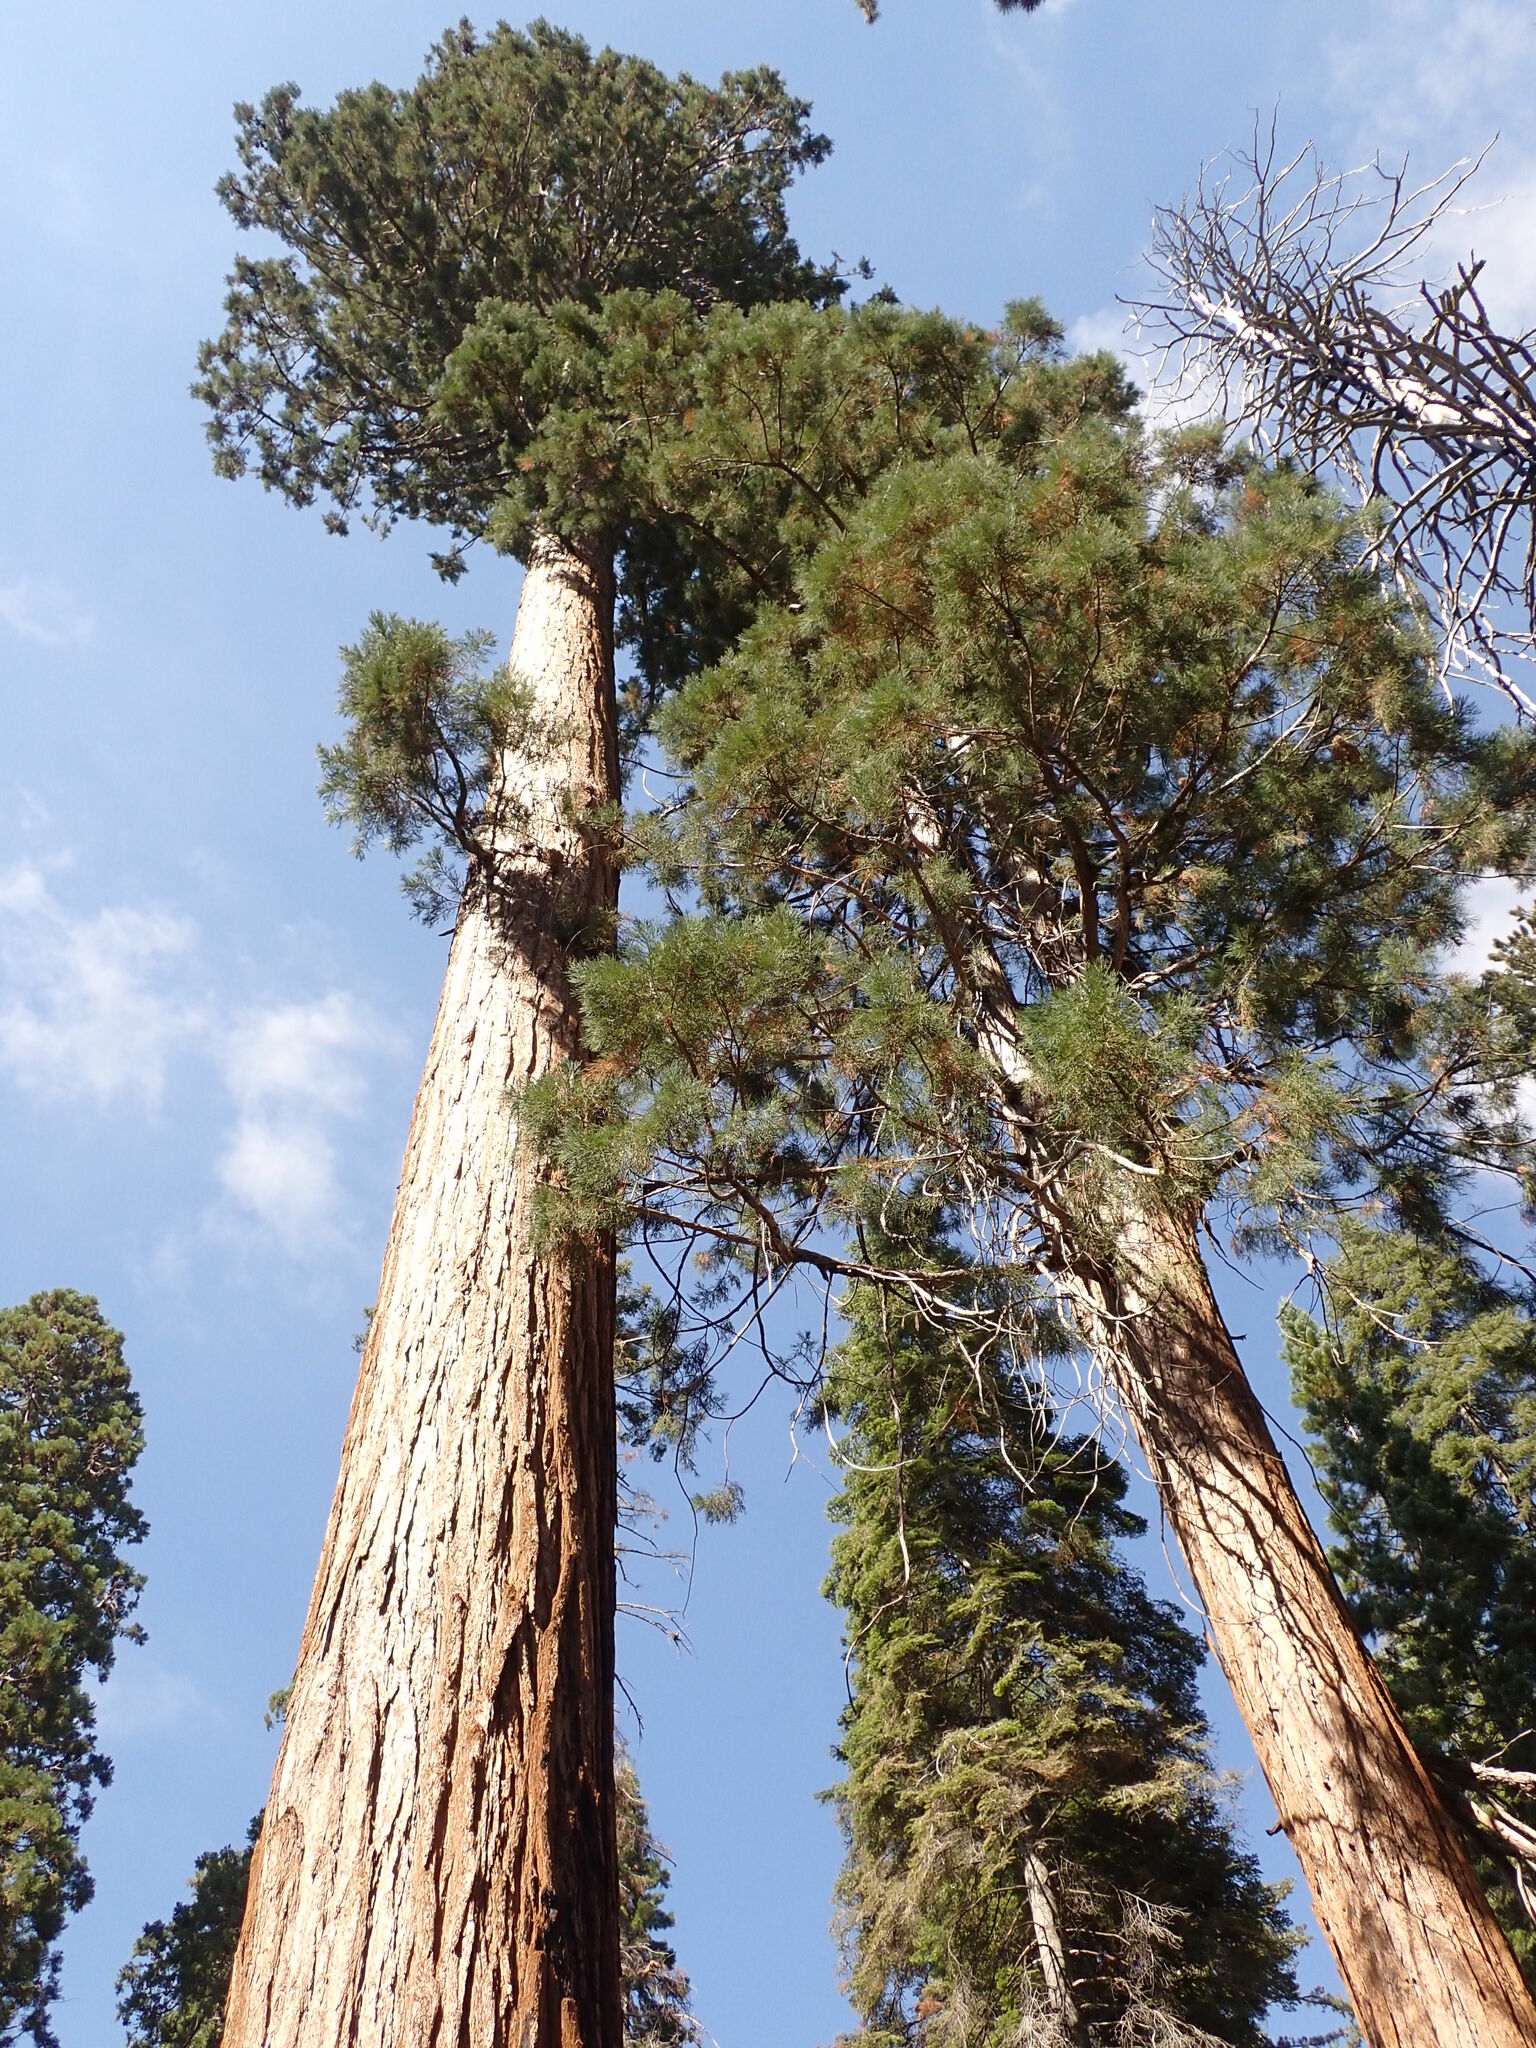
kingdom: Plantae
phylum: Tracheophyta
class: Pinopsida
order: Pinales
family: Cupressaceae
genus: Sequoiadendron
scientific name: Sequoiadendron giganteum
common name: Wellingtonia
